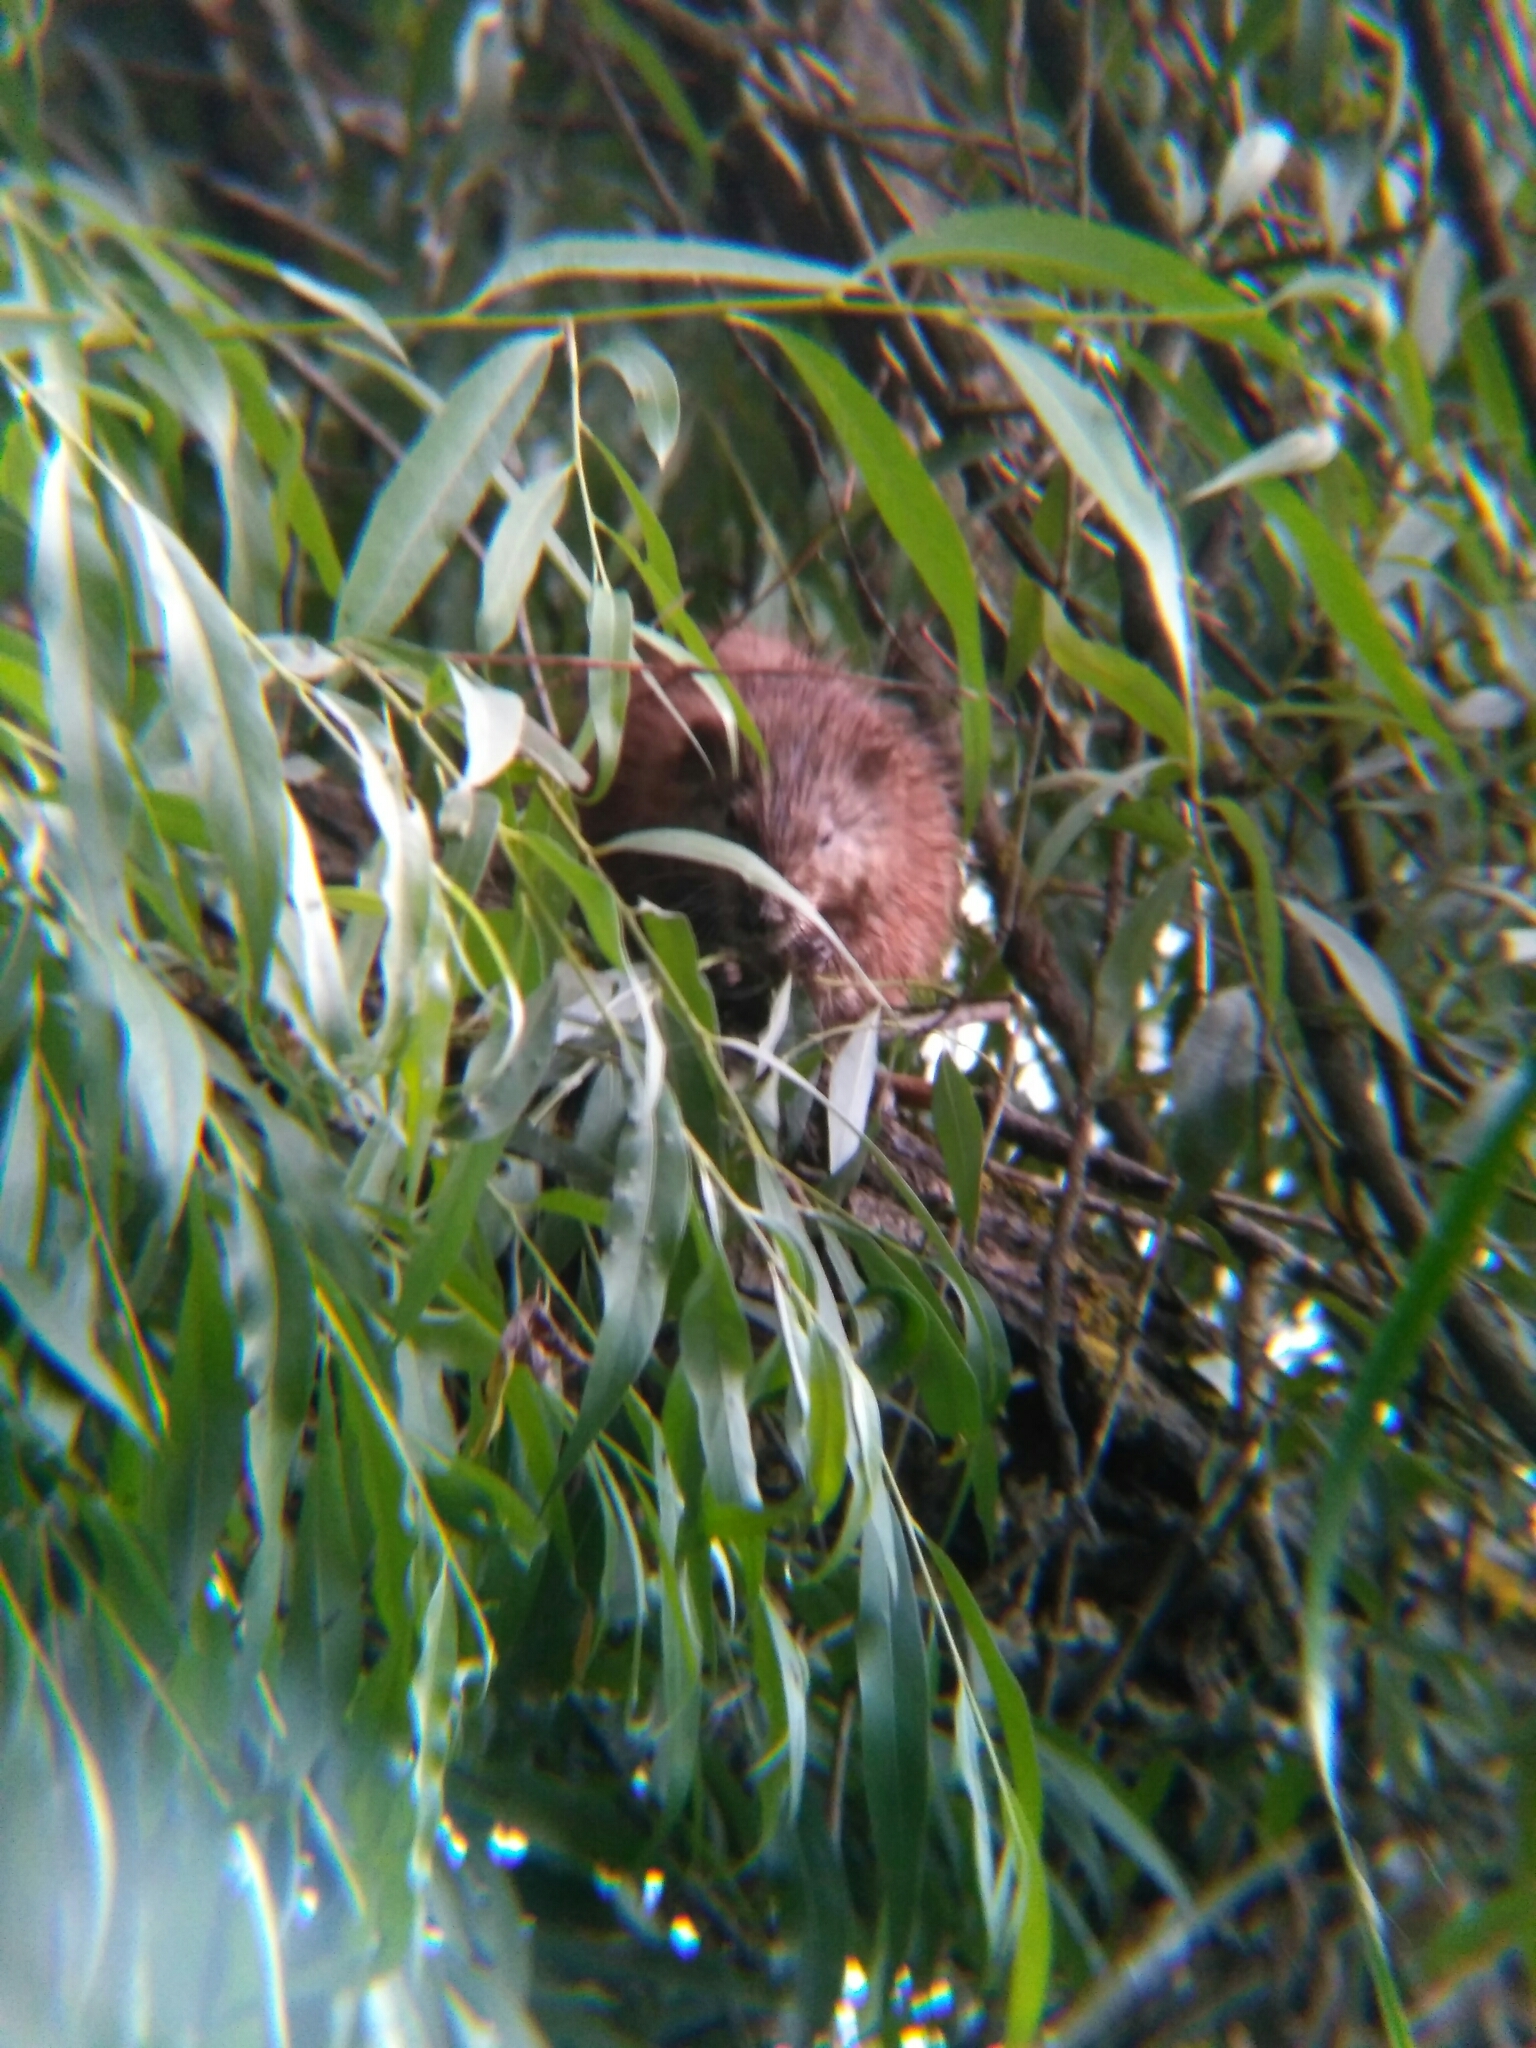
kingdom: Animalia
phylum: Chordata
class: Mammalia
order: Rodentia
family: Cricetidae
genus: Ondatra
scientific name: Ondatra zibethicus
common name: Muskrat
